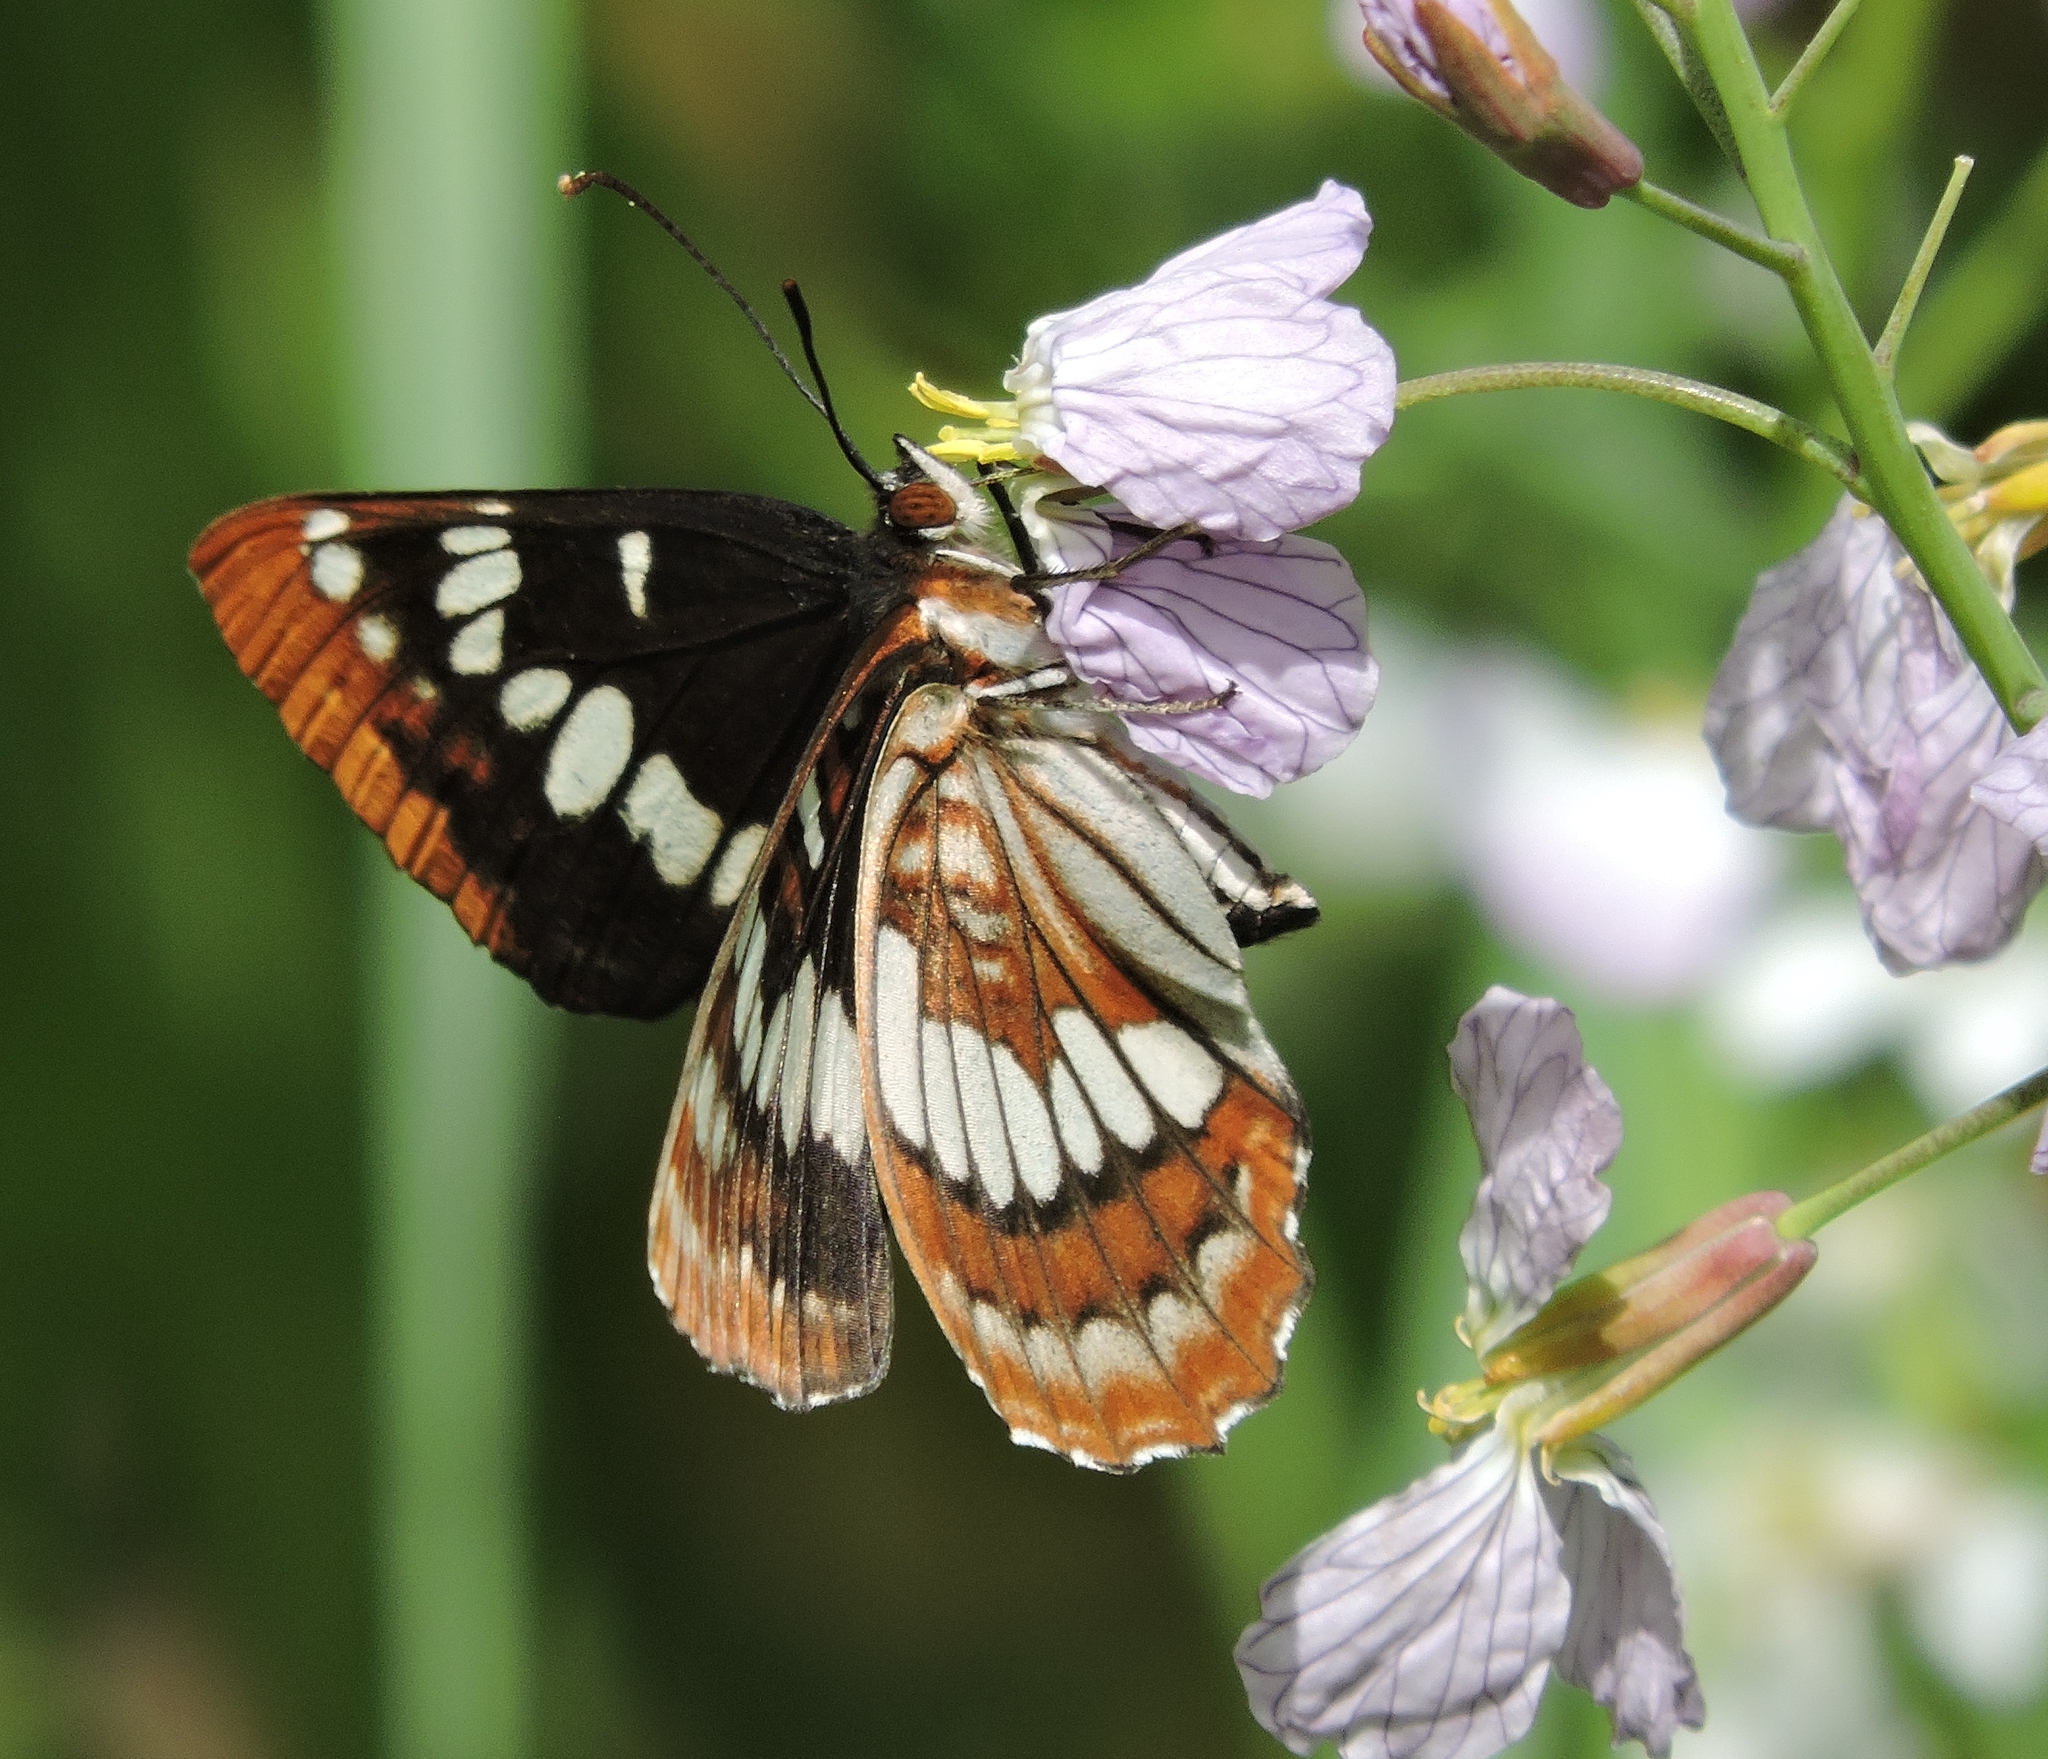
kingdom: Animalia
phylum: Arthropoda
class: Insecta
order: Lepidoptera
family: Nymphalidae
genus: Limenitis
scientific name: Limenitis lorquini
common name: Lorquin's admiral
